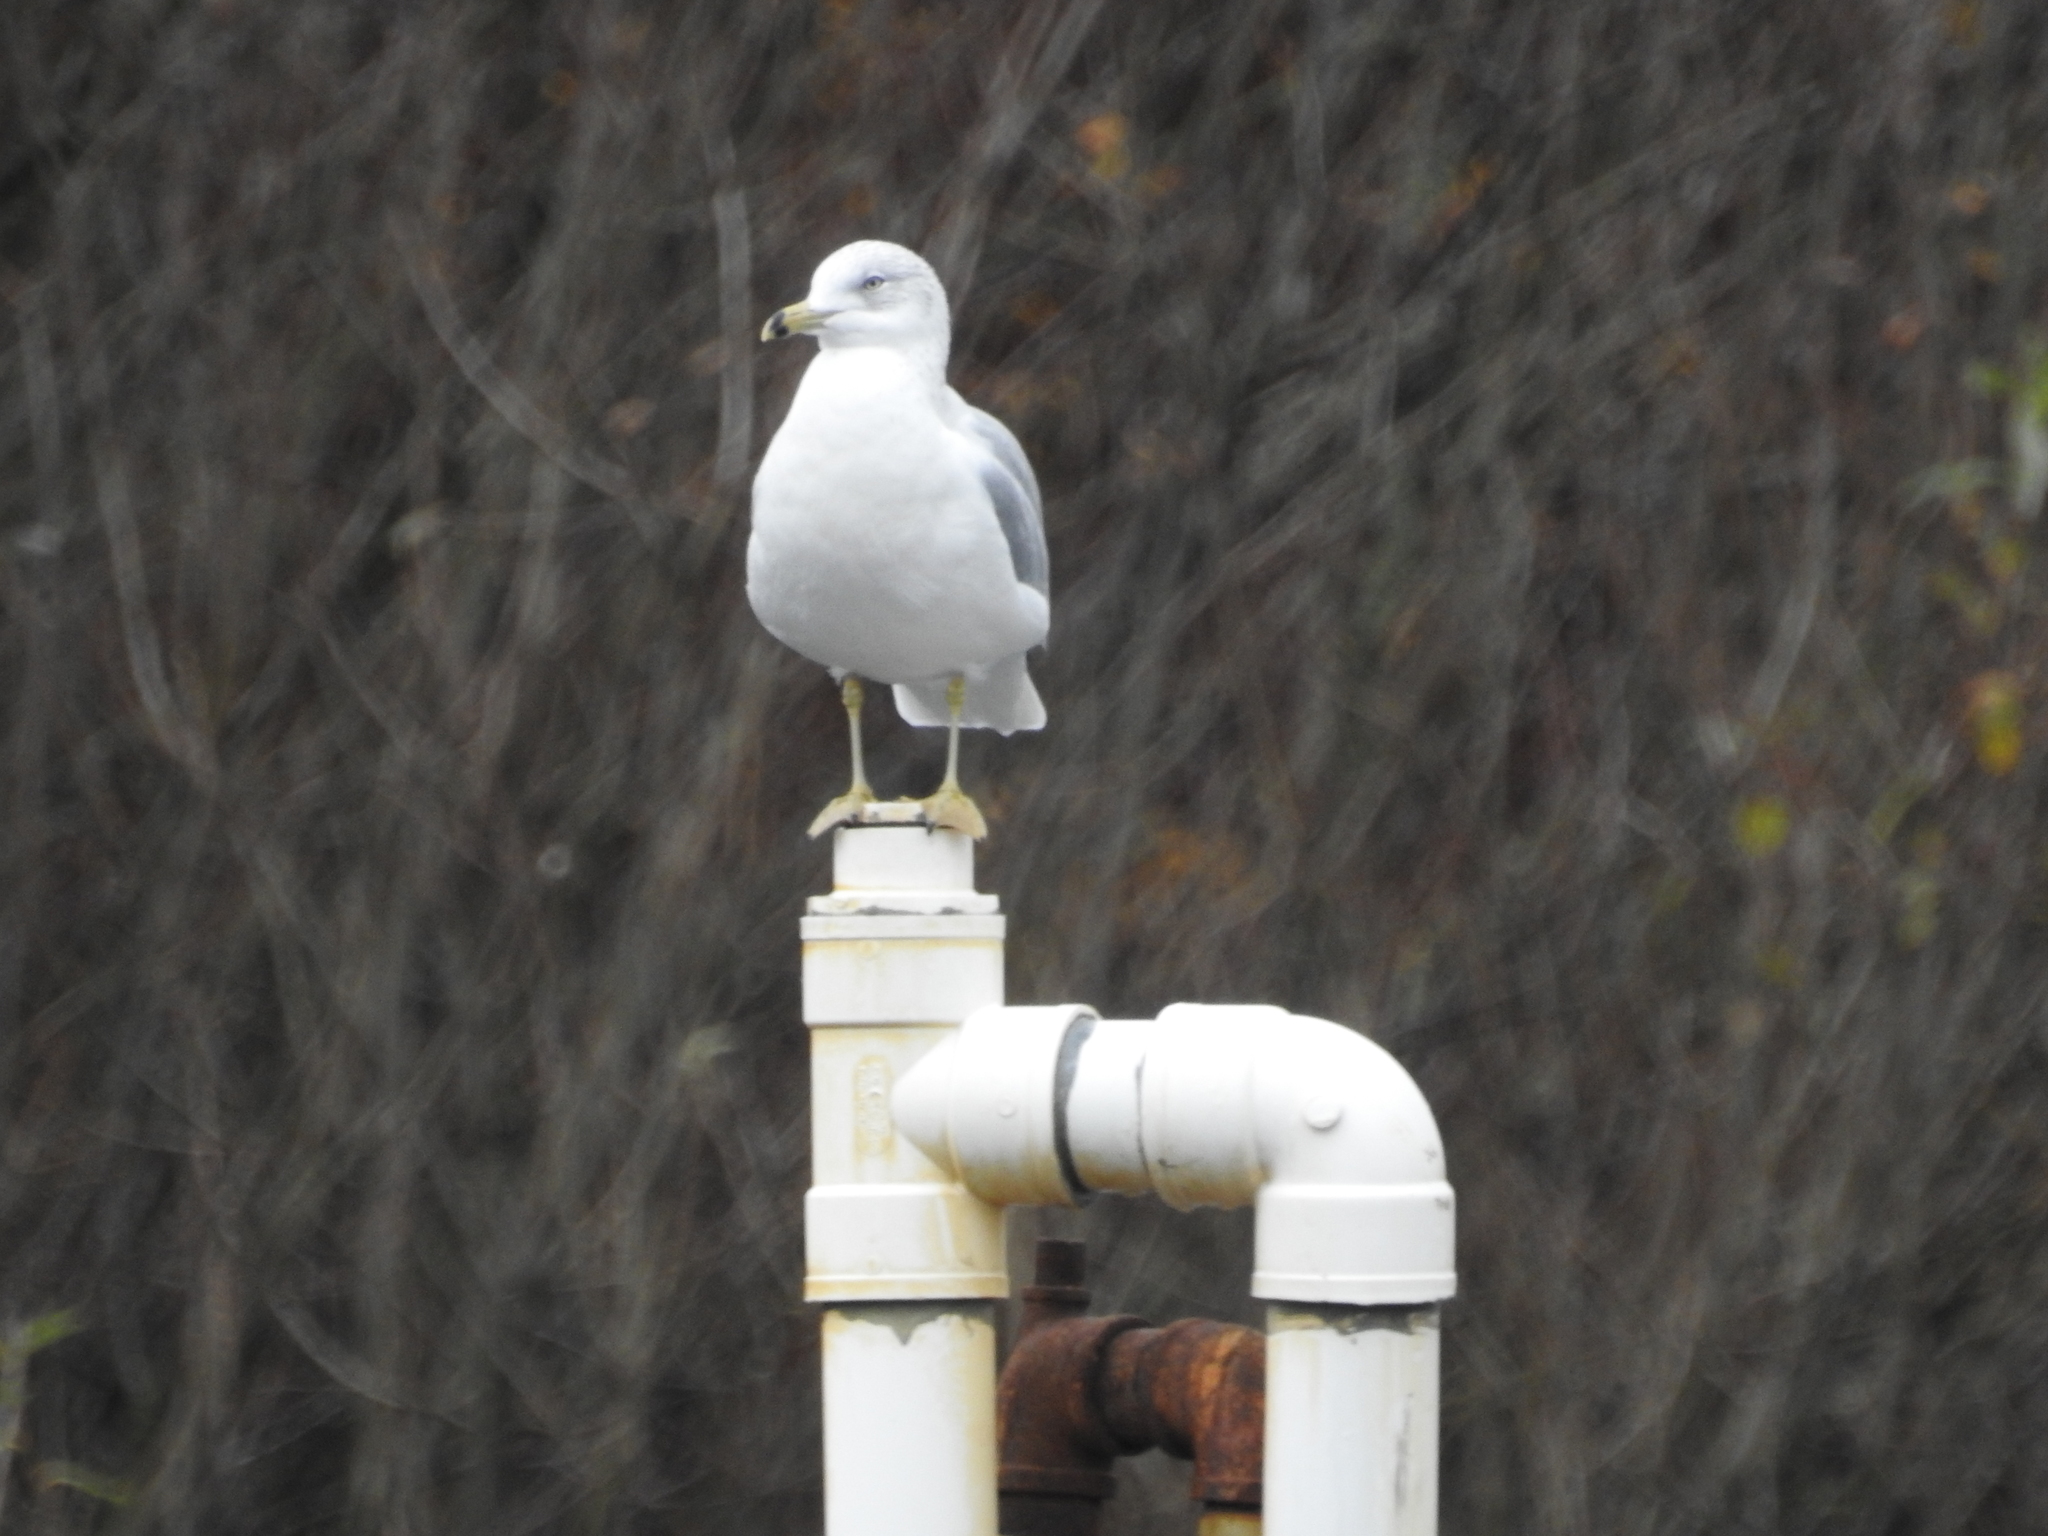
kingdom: Animalia
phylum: Chordata
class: Aves
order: Charadriiformes
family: Laridae
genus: Larus
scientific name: Larus delawarensis
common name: Ring-billed gull
